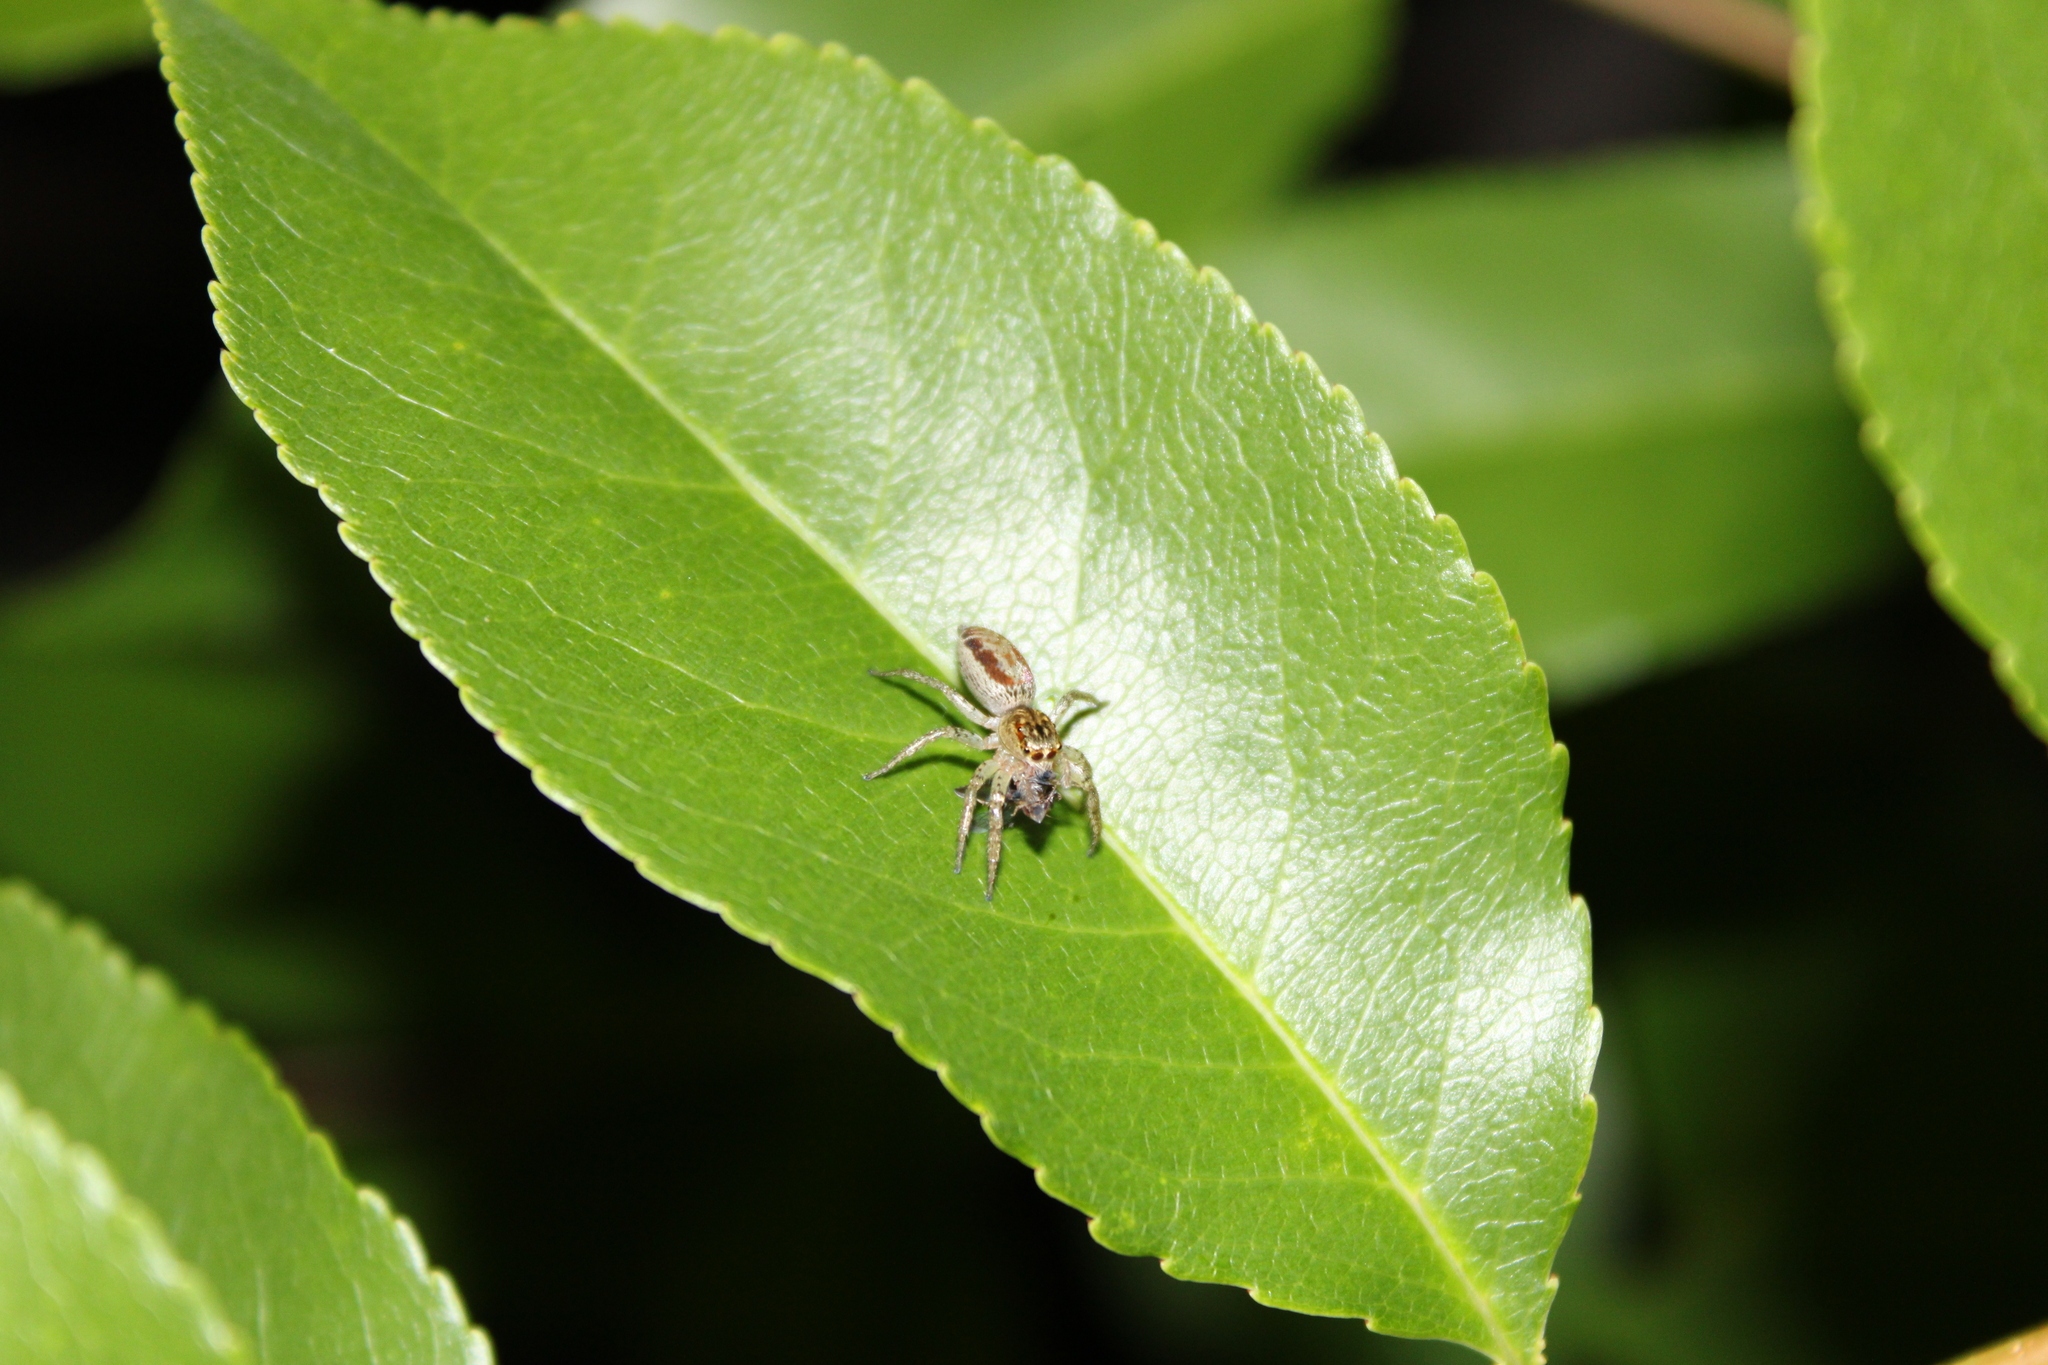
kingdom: Animalia
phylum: Arthropoda
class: Arachnida
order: Araneae
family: Salticidae
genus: Maevia
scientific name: Maevia inclemens
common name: Dimorphic jumper
